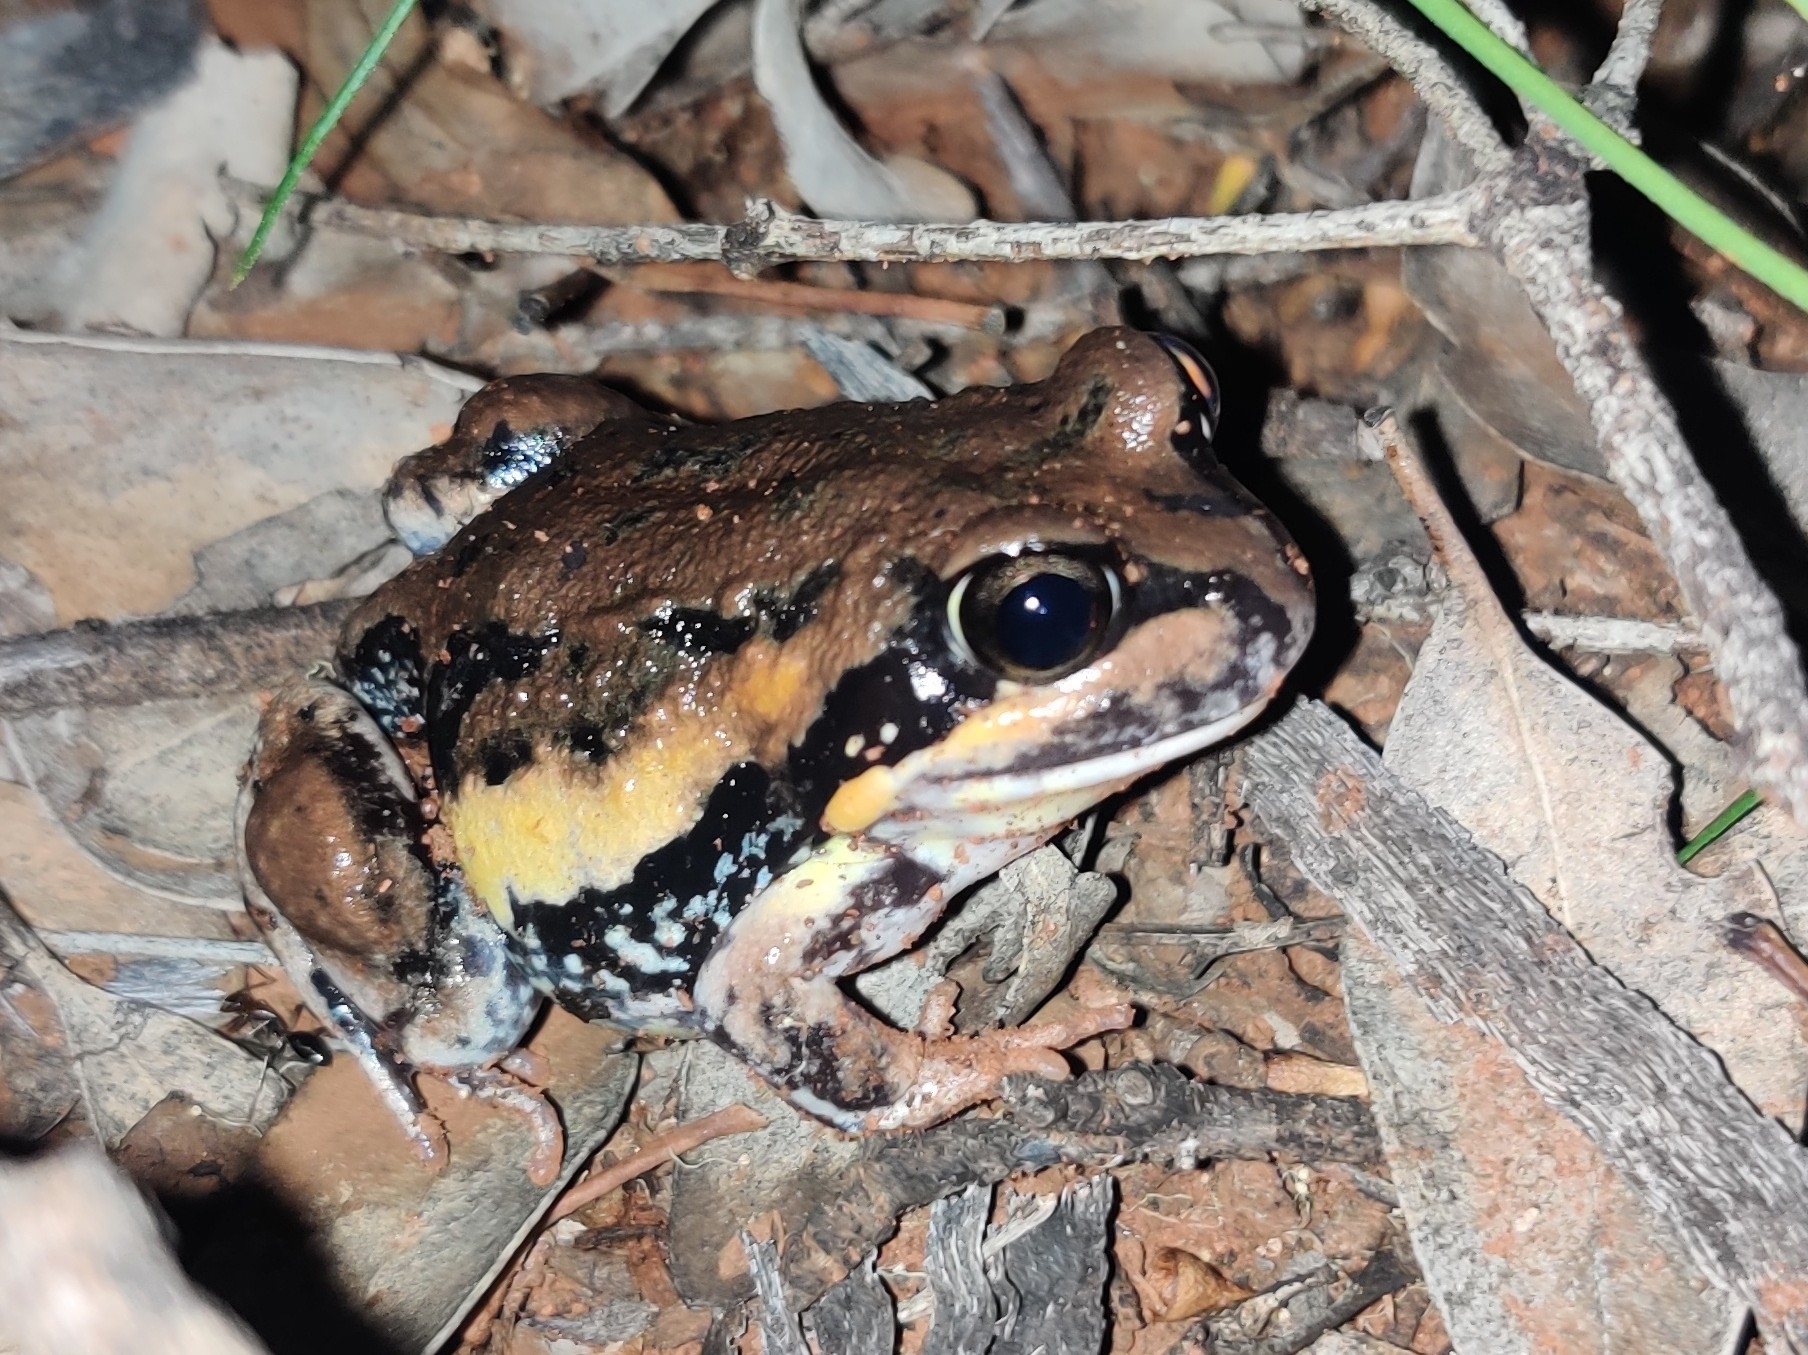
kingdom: Animalia
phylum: Chordata
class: Amphibia
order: Anura
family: Limnodynastidae
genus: Limnodynastes
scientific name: Limnodynastes interioris
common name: Giant banjo frog
